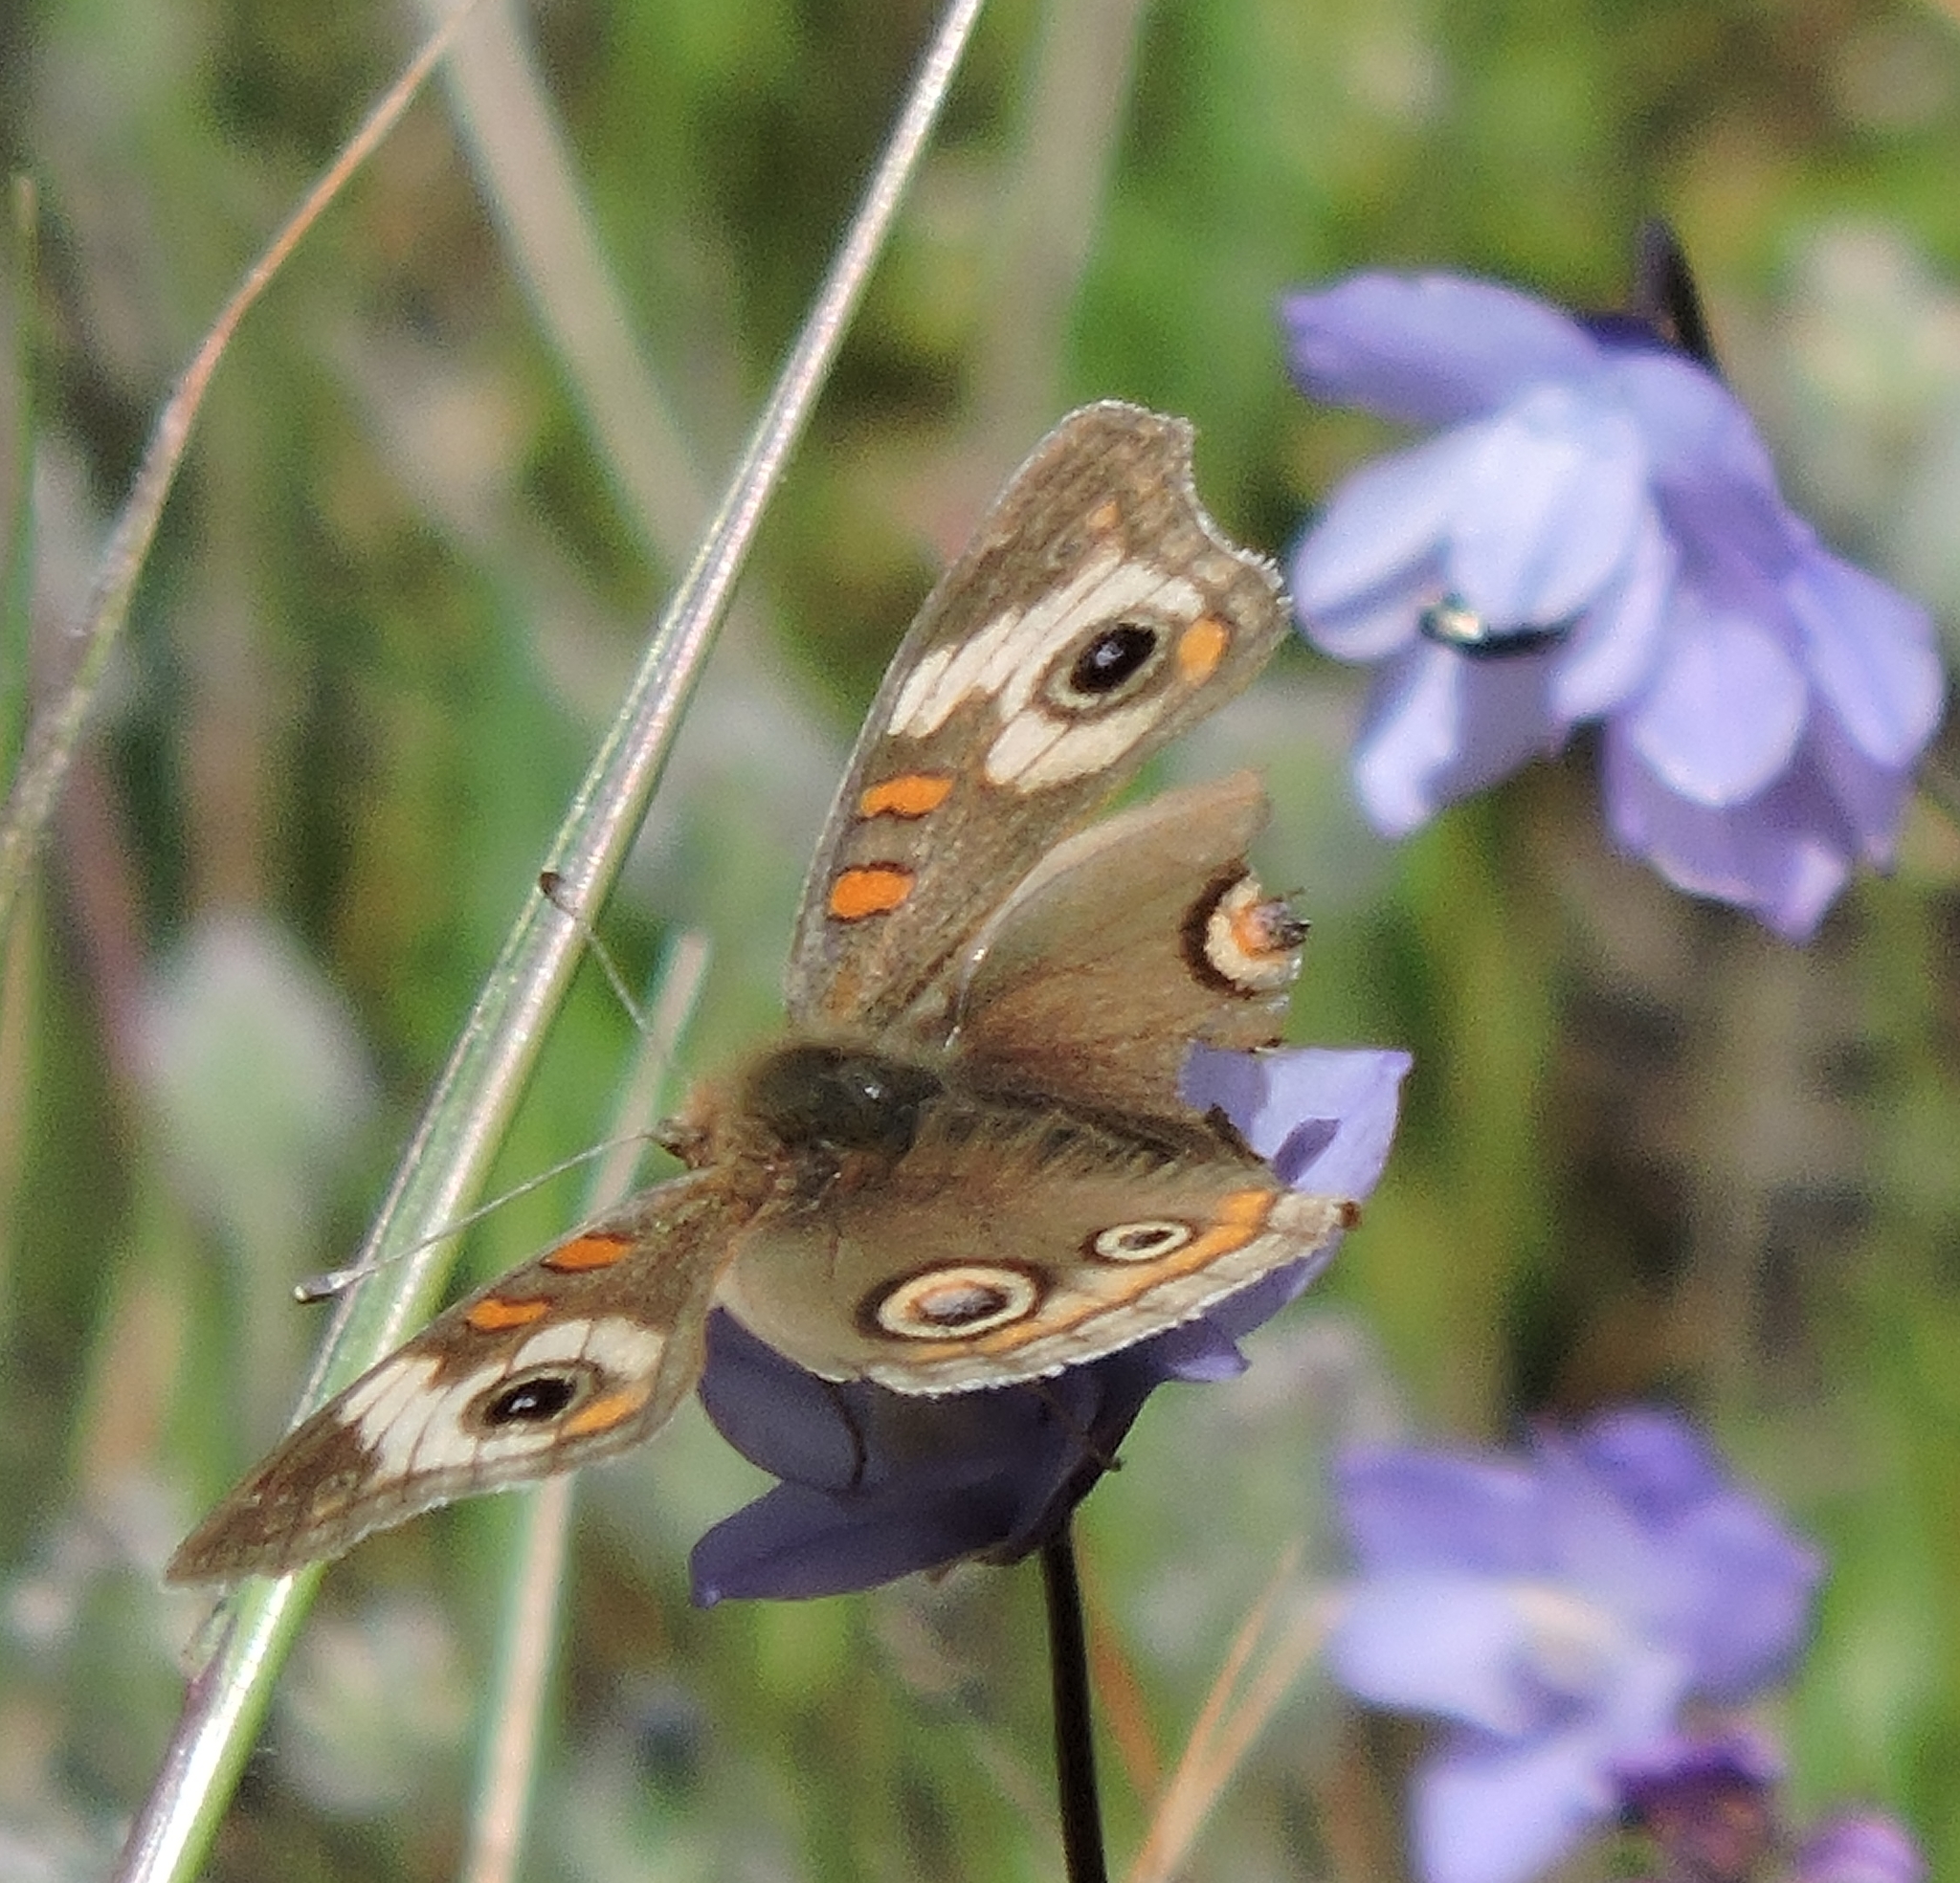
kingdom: Animalia
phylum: Arthropoda
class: Insecta
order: Lepidoptera
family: Nymphalidae
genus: Junonia
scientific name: Junonia grisea
